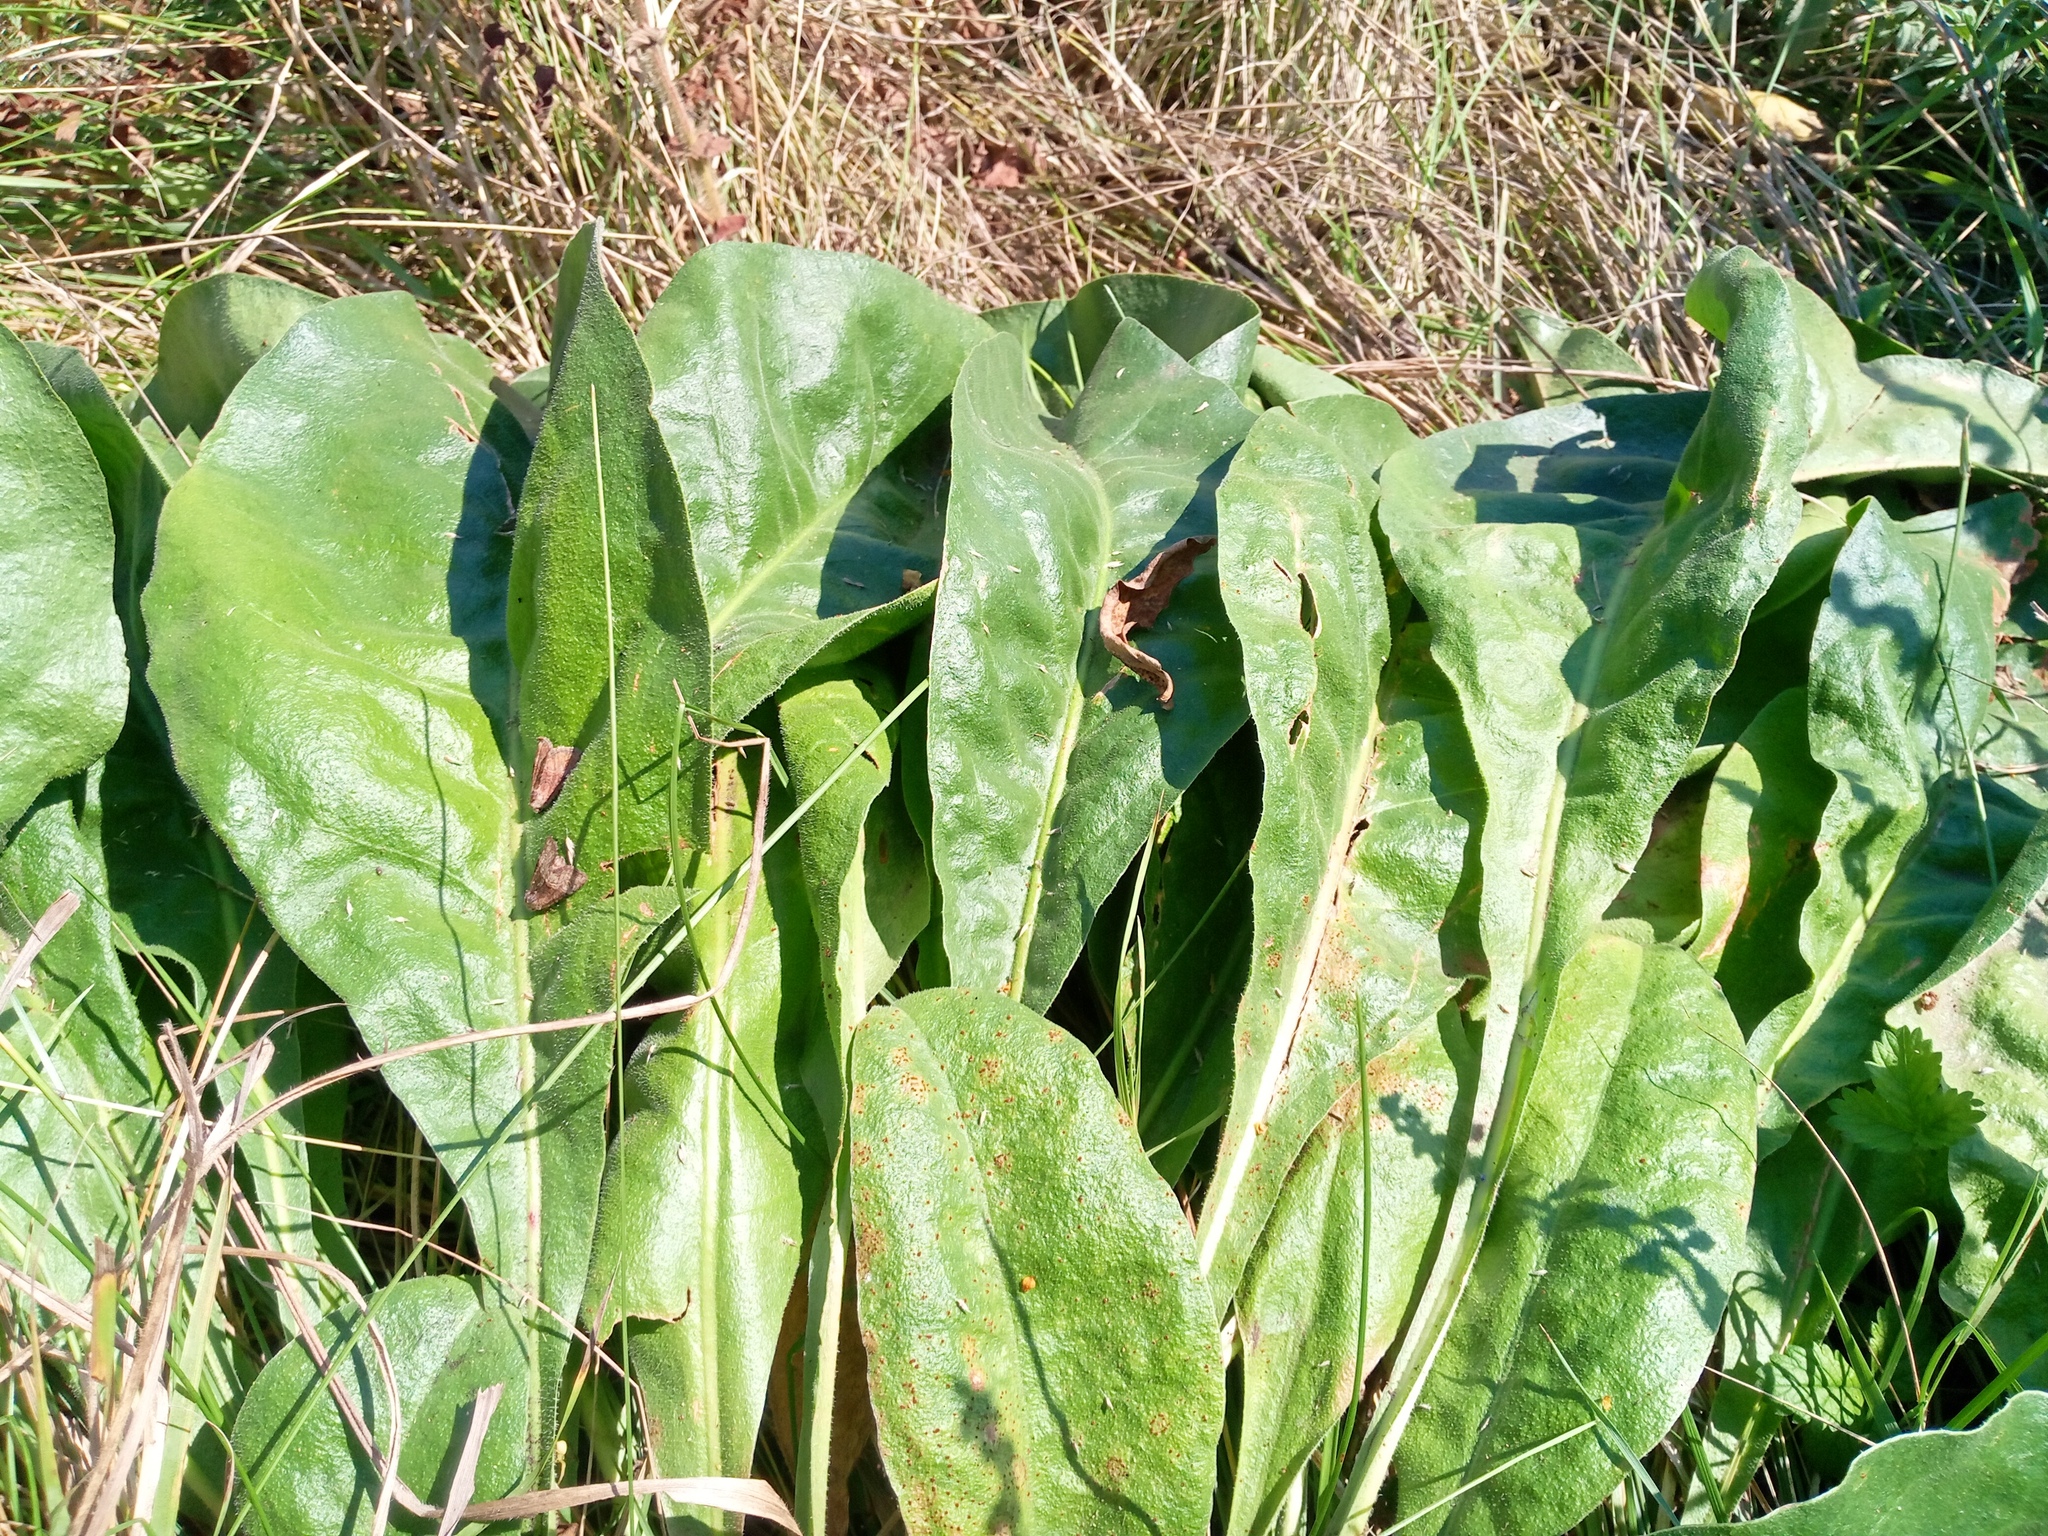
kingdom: Plantae
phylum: Tracheophyta
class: Magnoliopsida
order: Caryophyllales
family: Plumbaginaceae
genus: Limonium
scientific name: Limonium platyphyllum
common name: Florist's sea lavender
